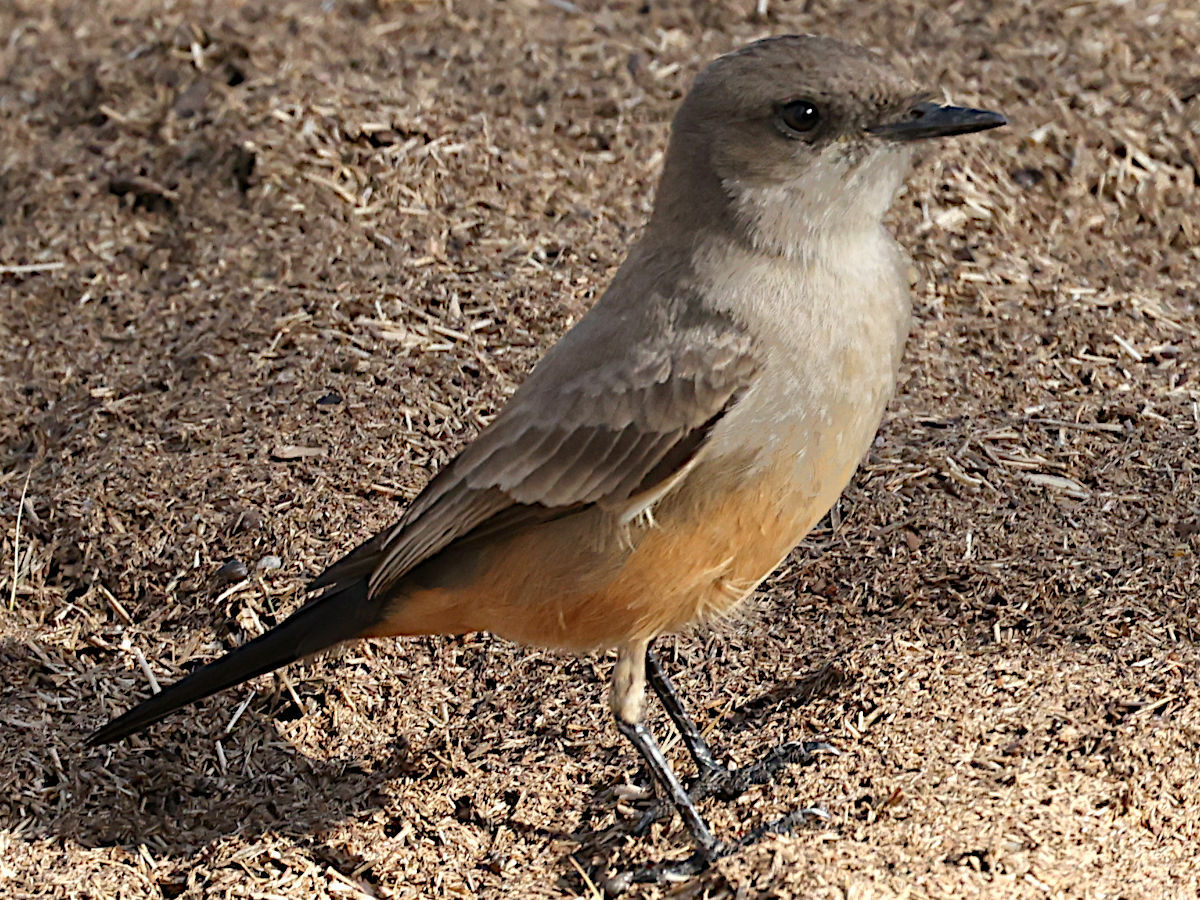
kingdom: Animalia
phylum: Chordata
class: Aves
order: Passeriformes
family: Tyrannidae
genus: Sayornis
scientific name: Sayornis saya
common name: Say's phoebe
